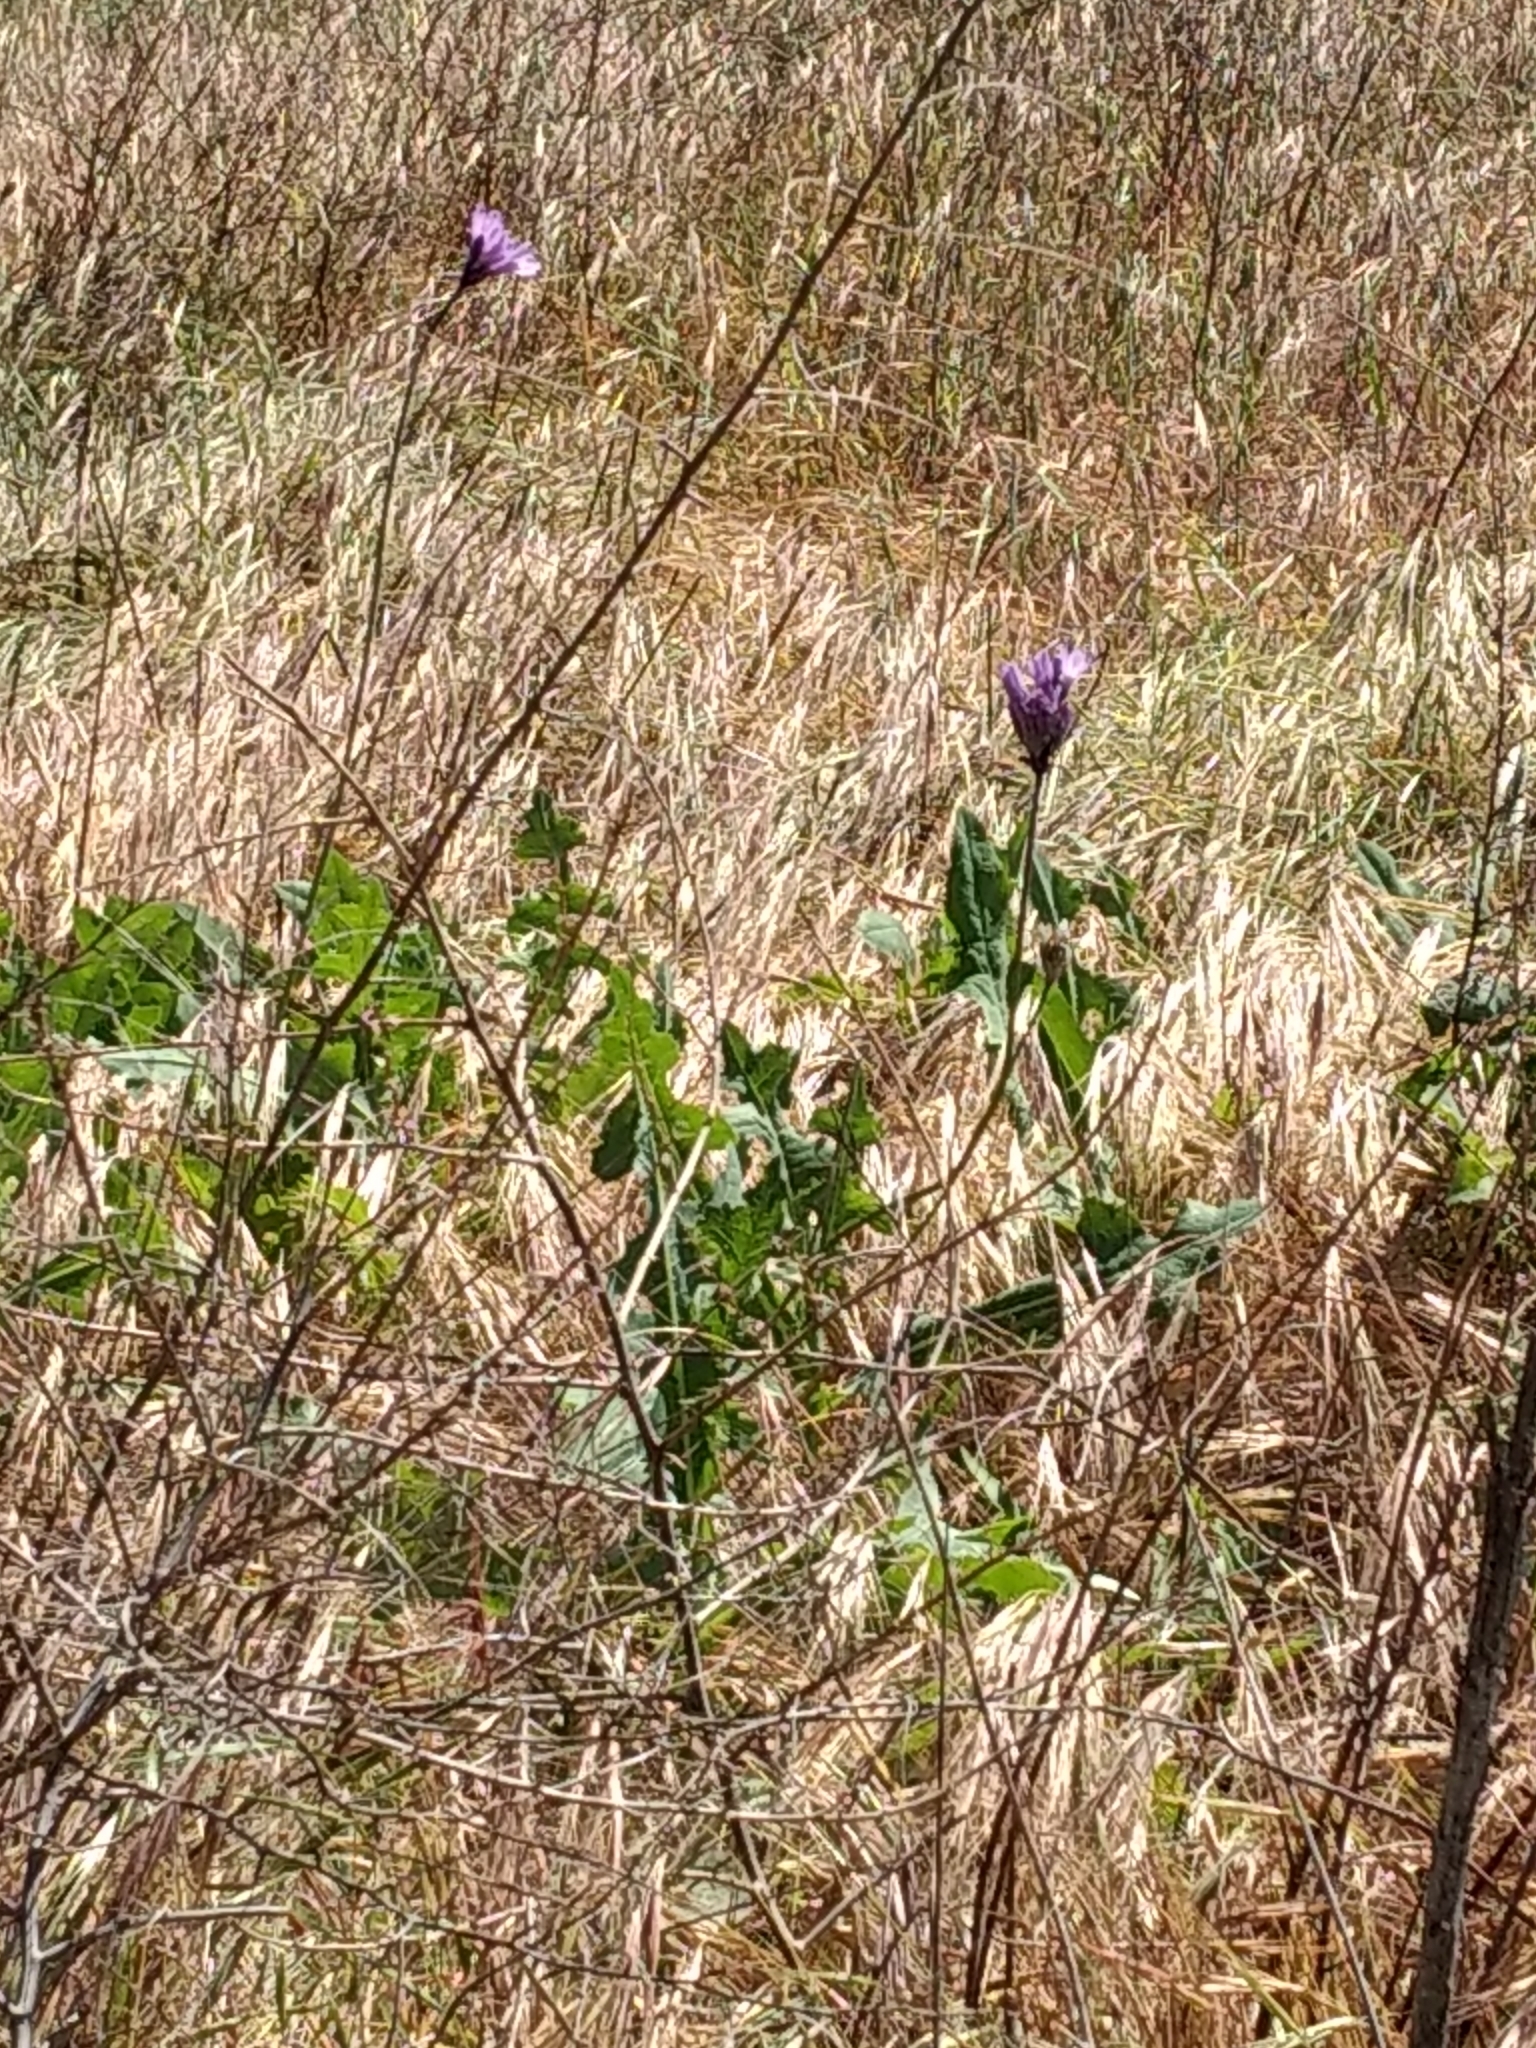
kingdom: Plantae
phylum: Tracheophyta
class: Liliopsida
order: Asparagales
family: Asparagaceae
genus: Dipterostemon
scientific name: Dipterostemon capitatus
